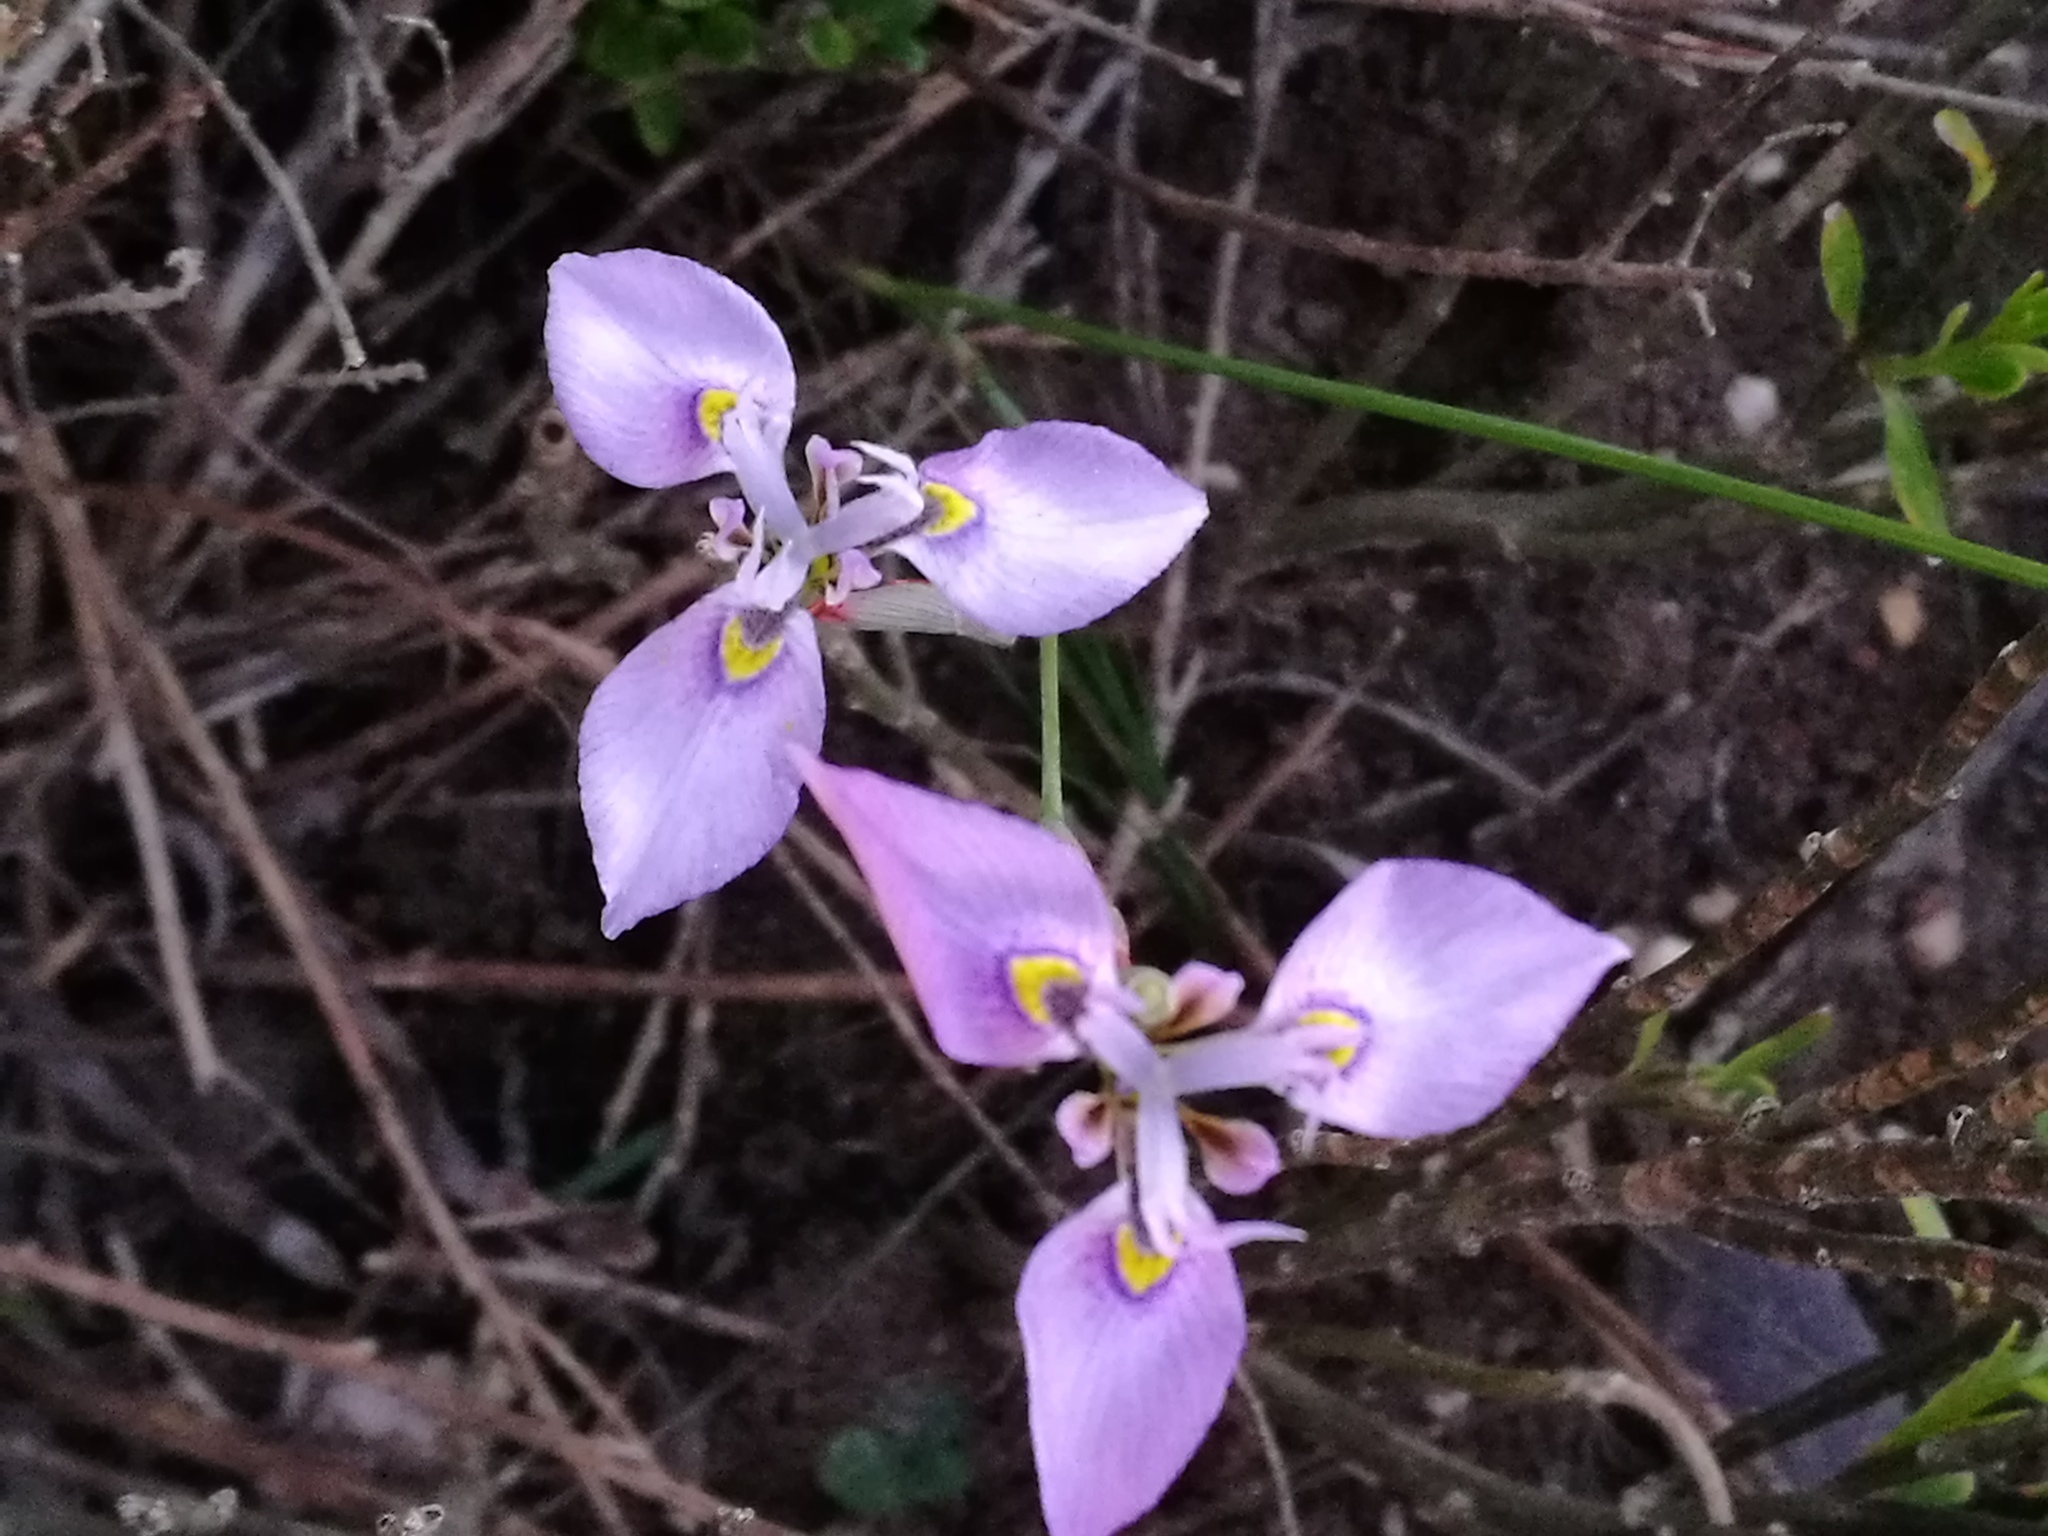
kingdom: Plantae
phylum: Tracheophyta
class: Liliopsida
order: Asparagales
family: Iridaceae
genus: Moraea
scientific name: Moraea algoensis
